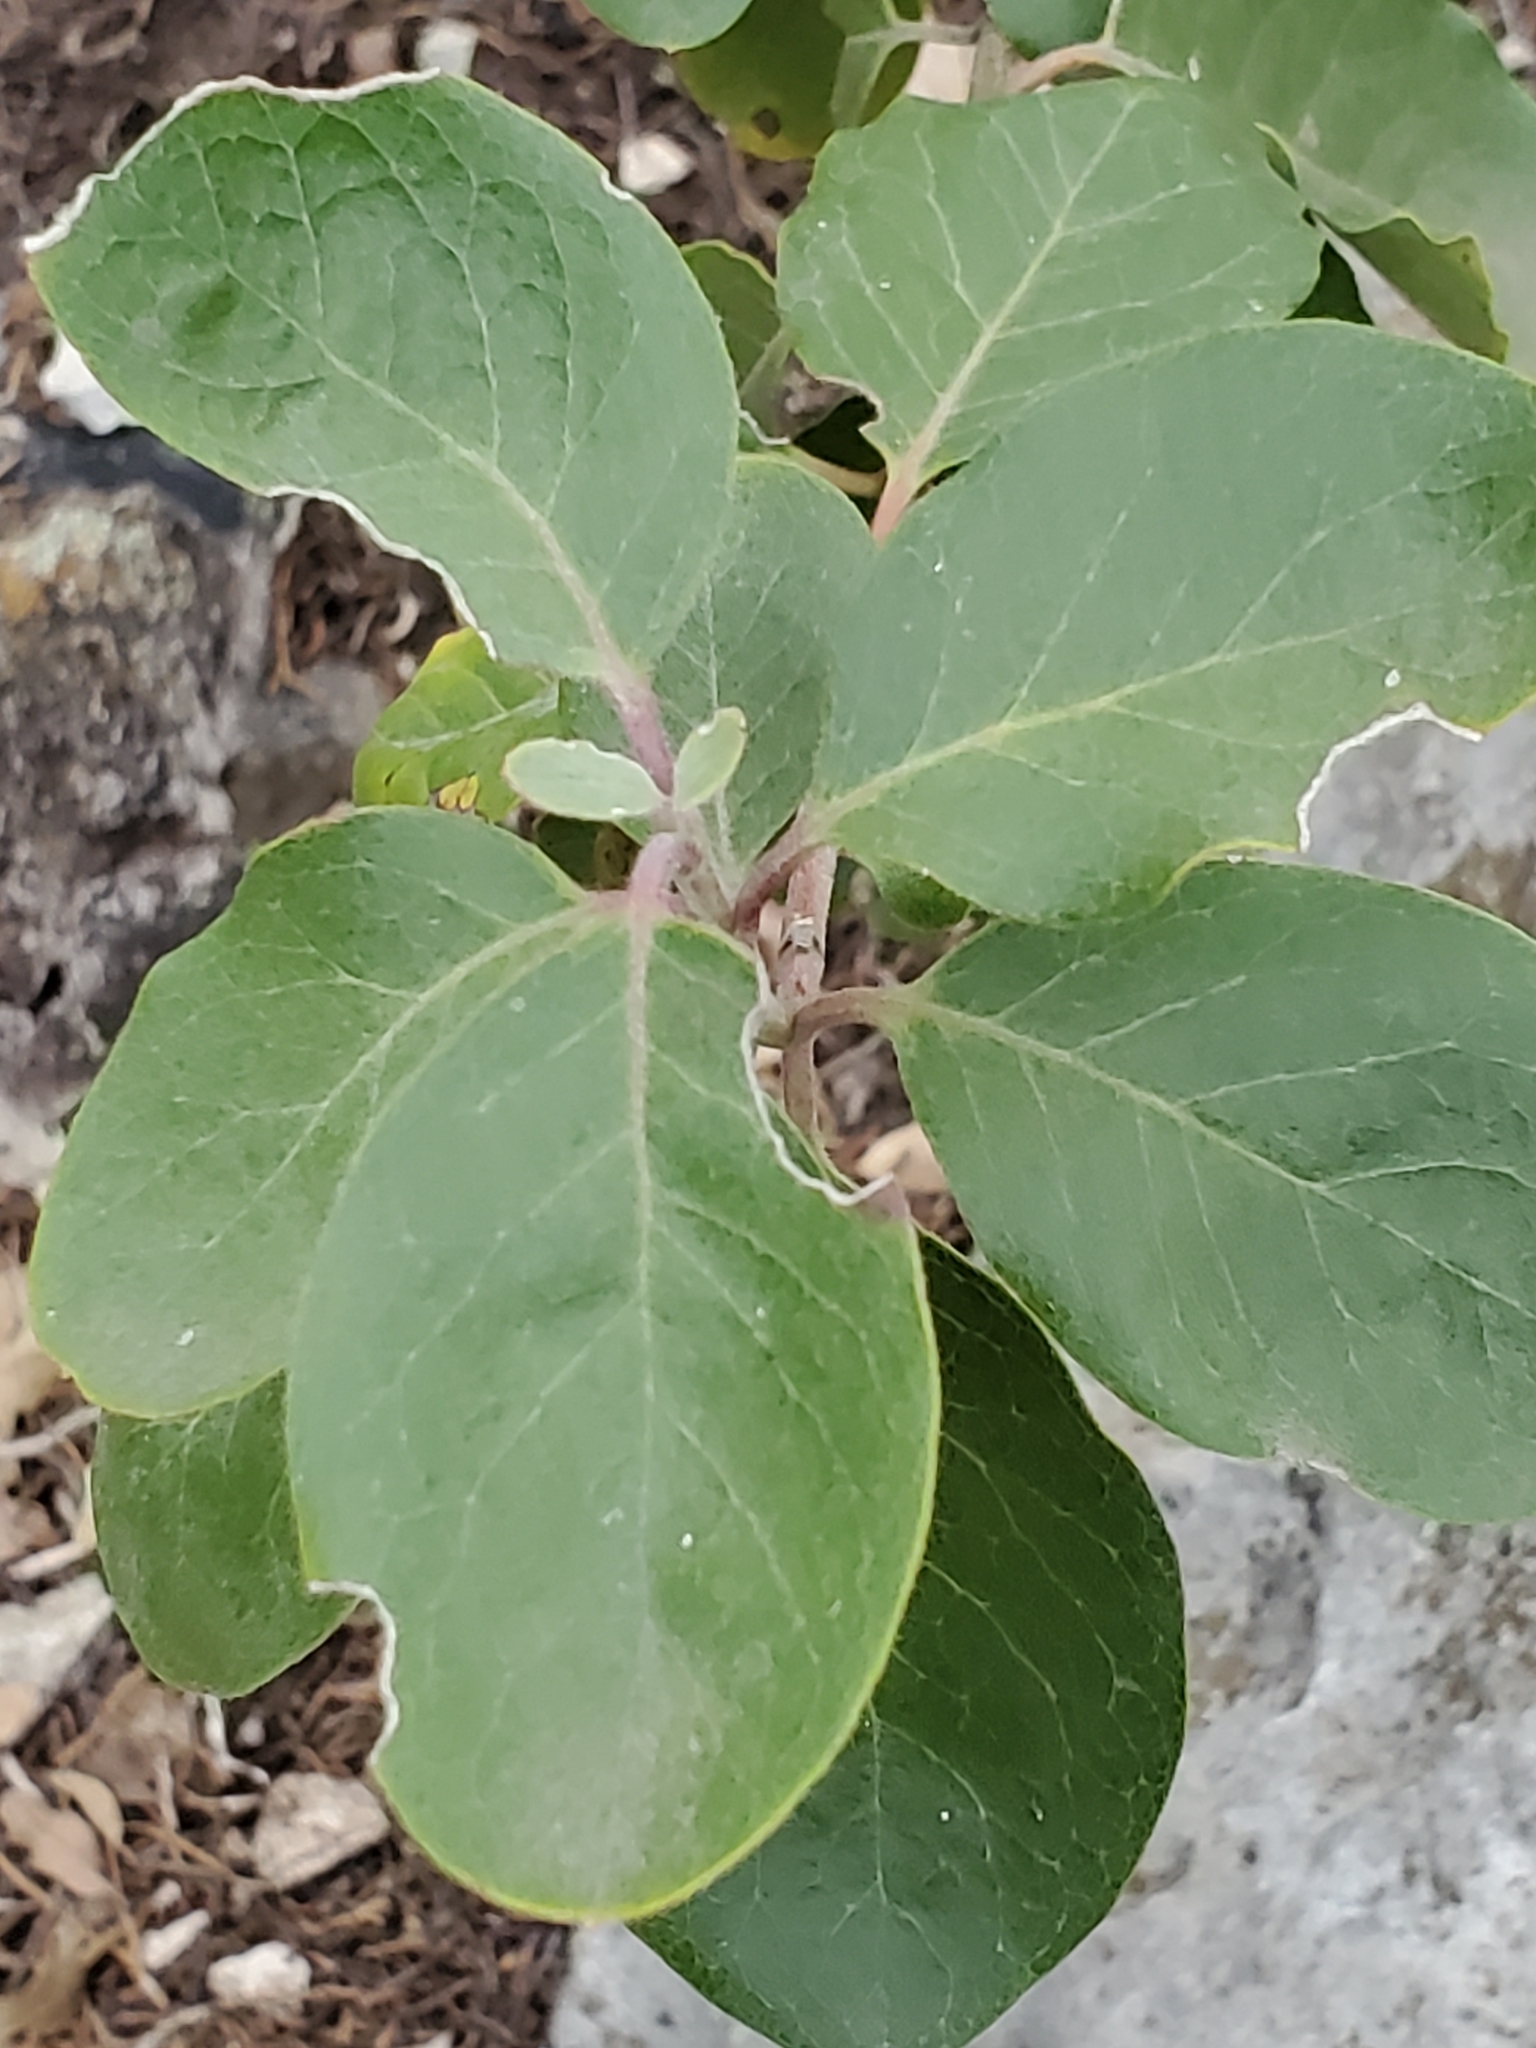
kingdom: Plantae
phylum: Tracheophyta
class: Magnoliopsida
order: Garryales
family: Garryaceae
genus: Garrya
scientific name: Garrya lindheimeri
